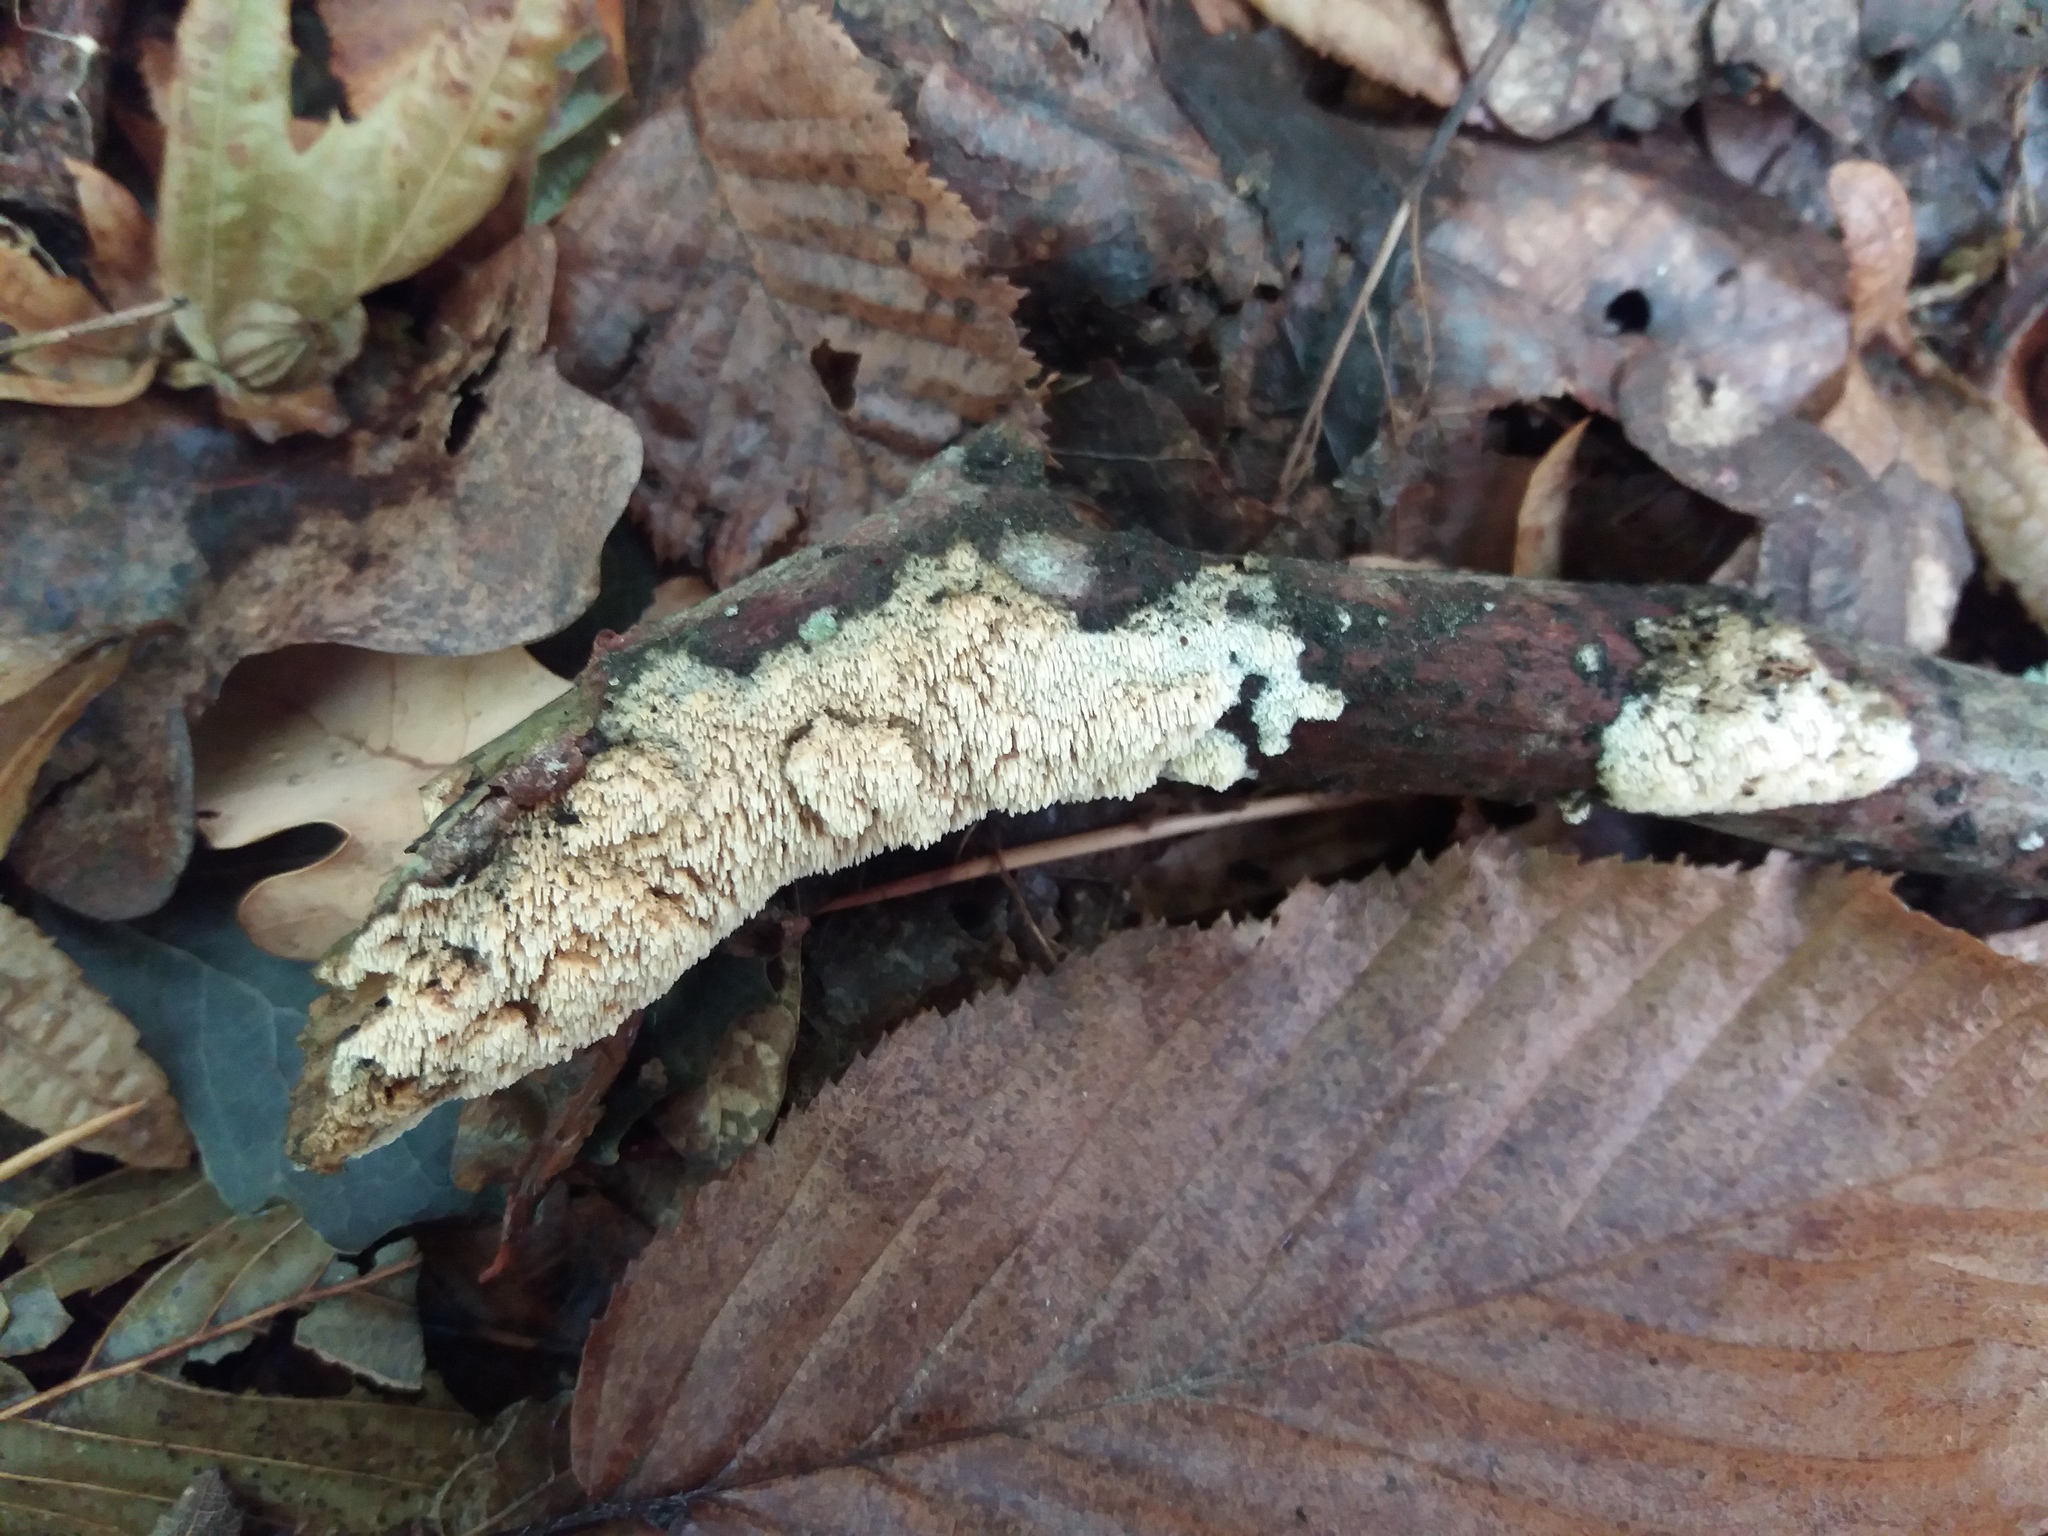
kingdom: Fungi
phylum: Basidiomycota
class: Agaricomycetes
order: Hymenochaetales
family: Schizoporaceae
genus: Xylodon
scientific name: Xylodon radula
